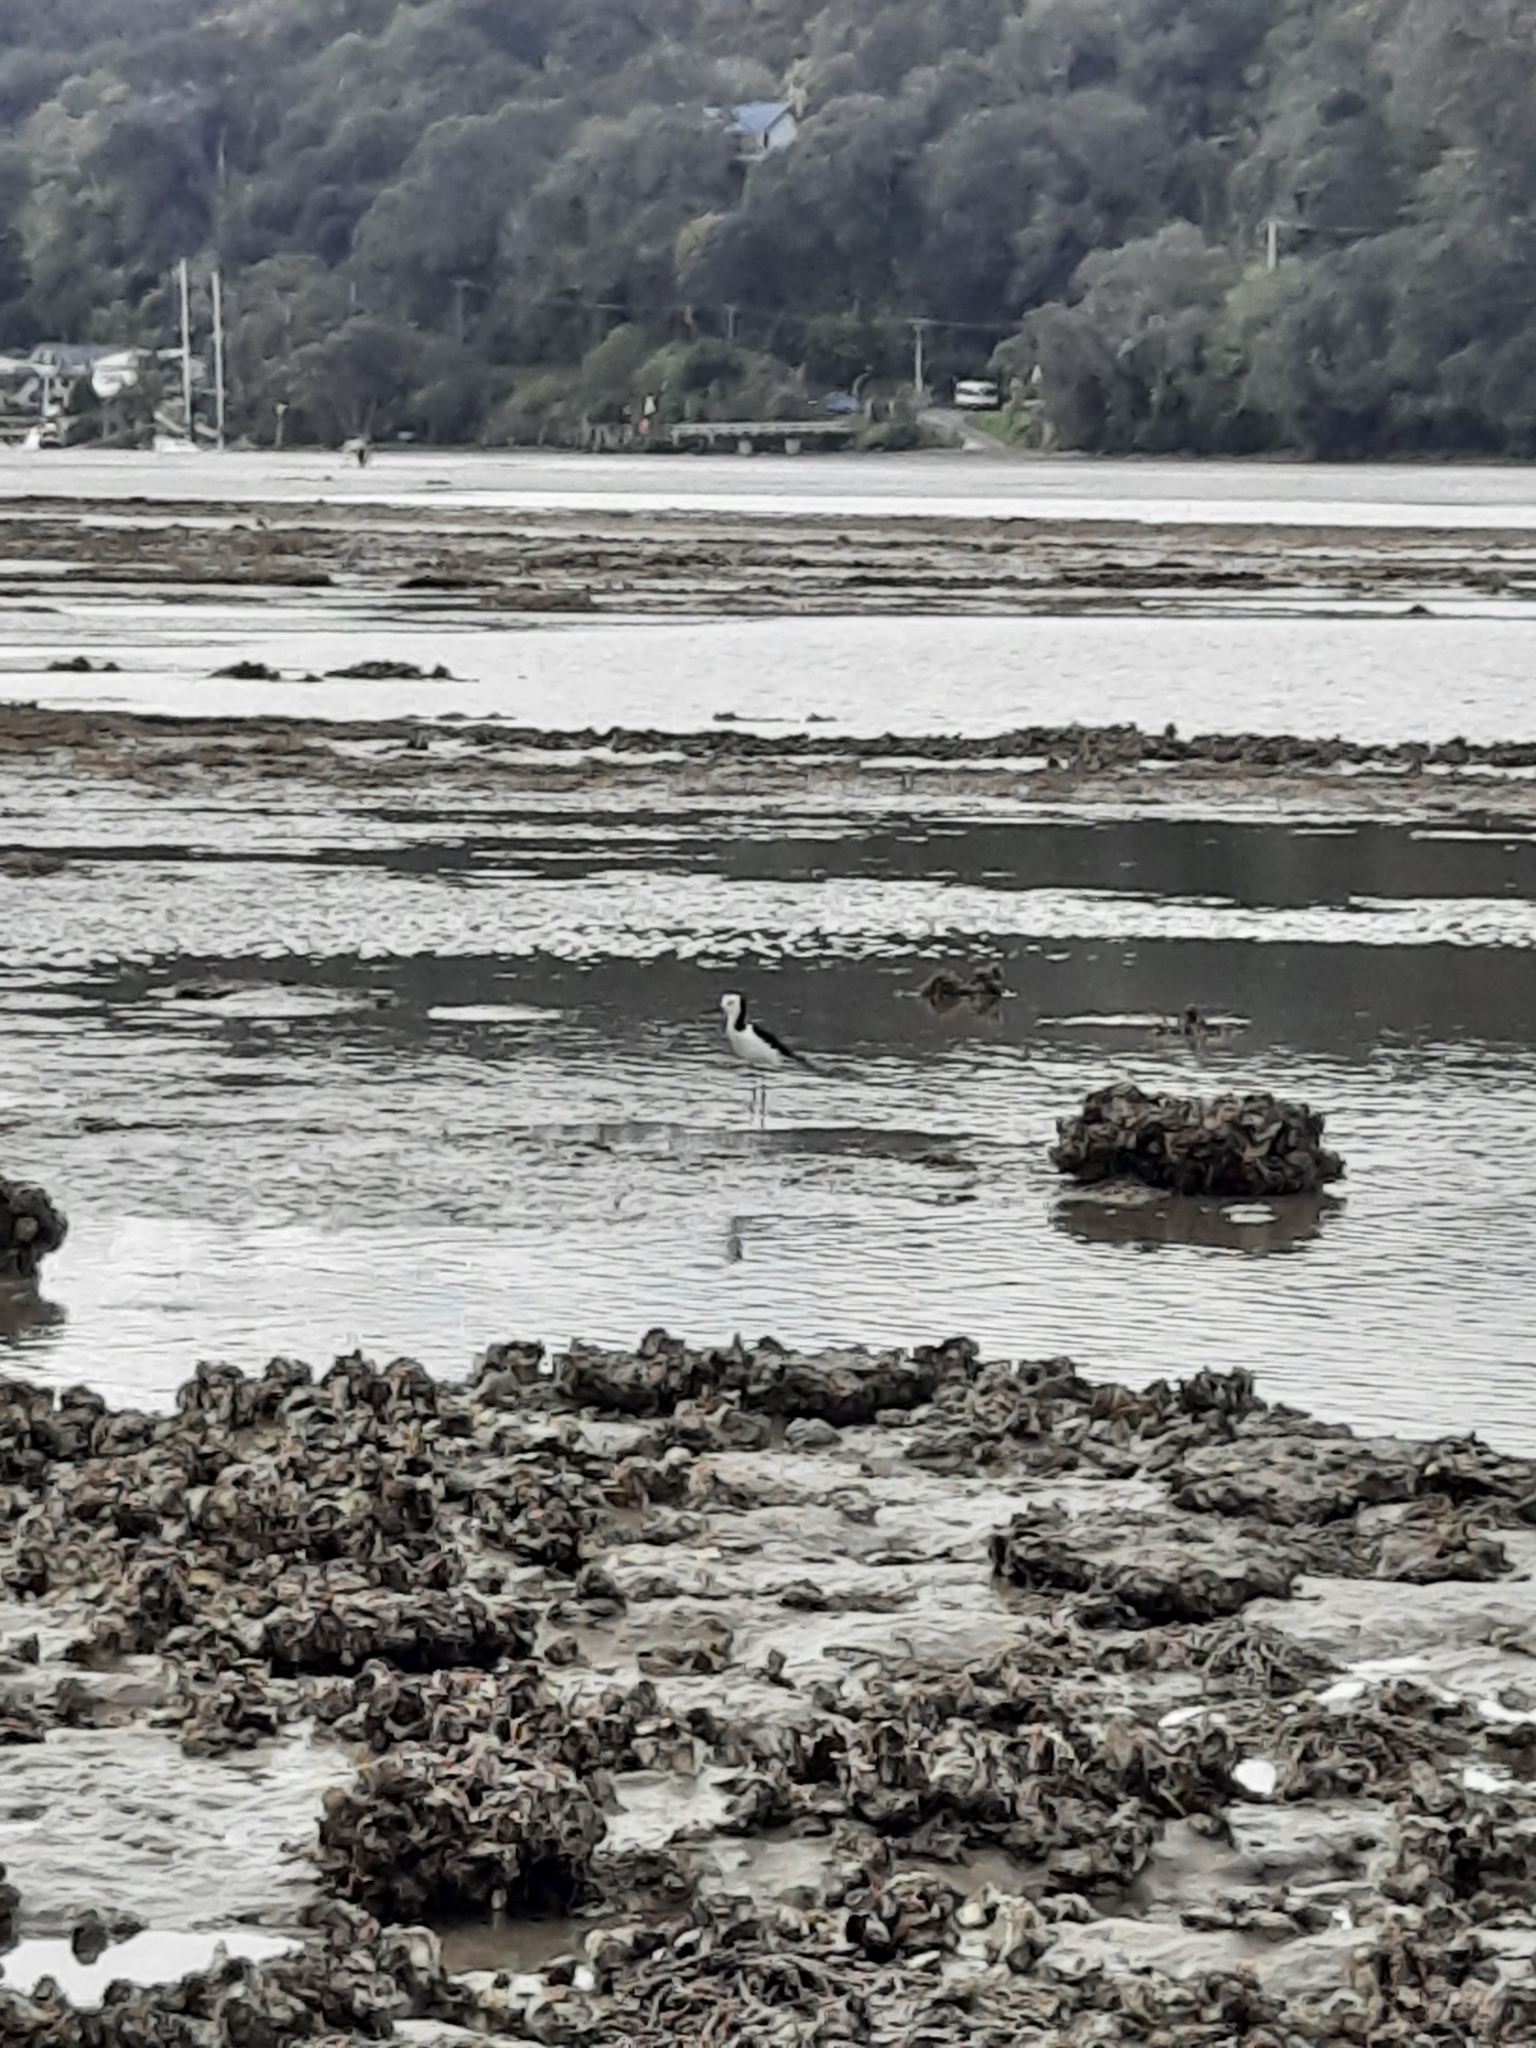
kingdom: Animalia
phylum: Chordata
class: Aves
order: Charadriiformes
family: Recurvirostridae
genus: Himantopus
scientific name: Himantopus leucocephalus
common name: White-headed stilt
